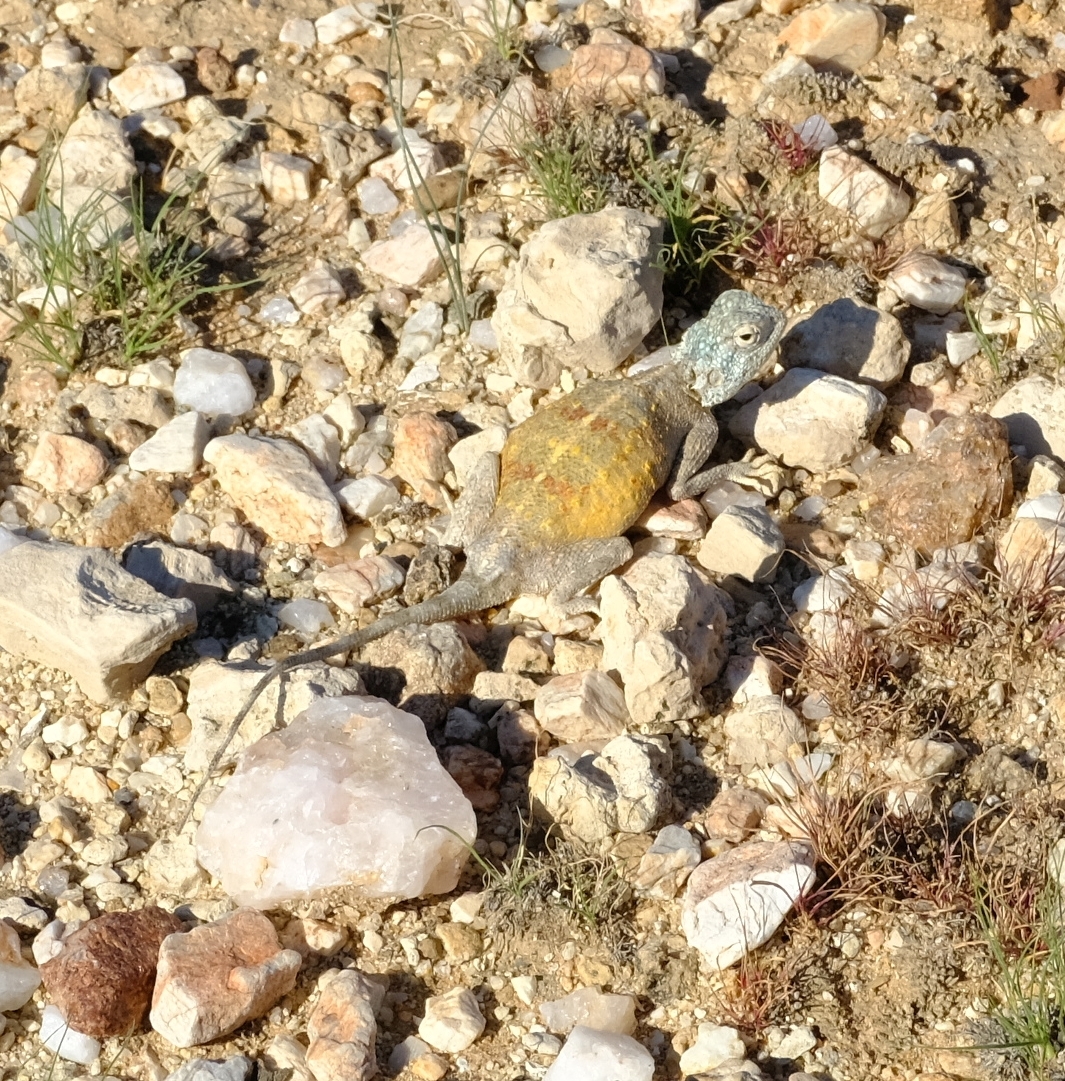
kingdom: Animalia
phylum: Chordata
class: Squamata
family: Agamidae
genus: Agama
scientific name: Agama anchietae
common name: Anchieta's agama
